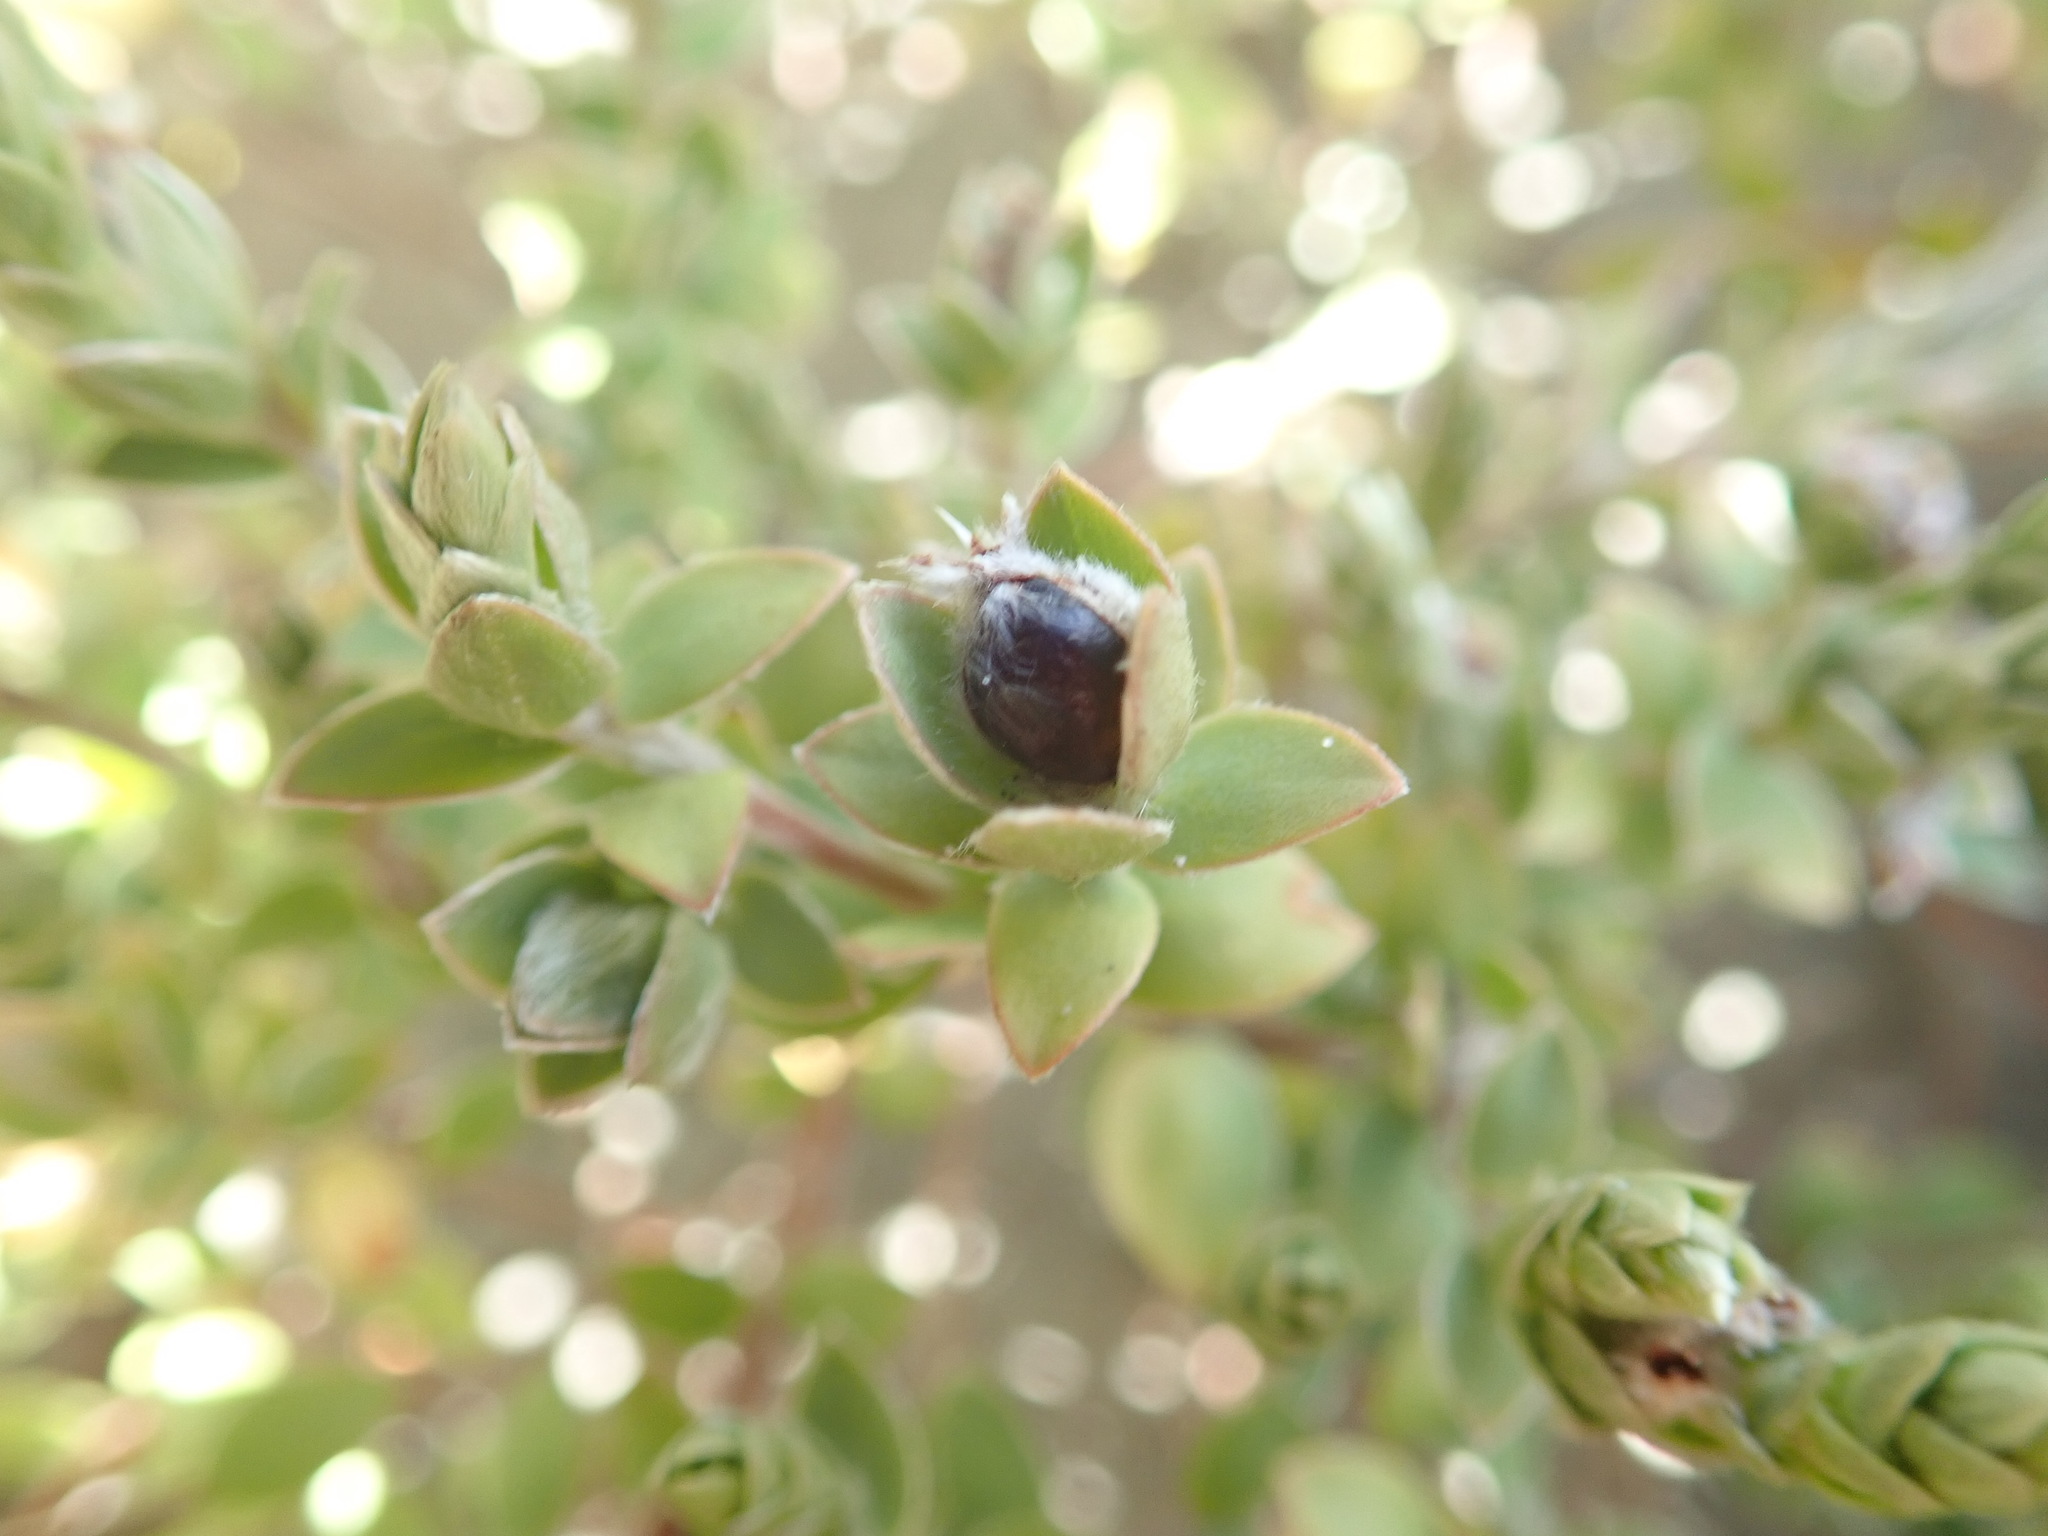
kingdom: Plantae
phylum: Tracheophyta
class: Magnoliopsida
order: Malvales
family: Thymelaeaceae
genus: Pimelea
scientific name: Pimelea villosa
